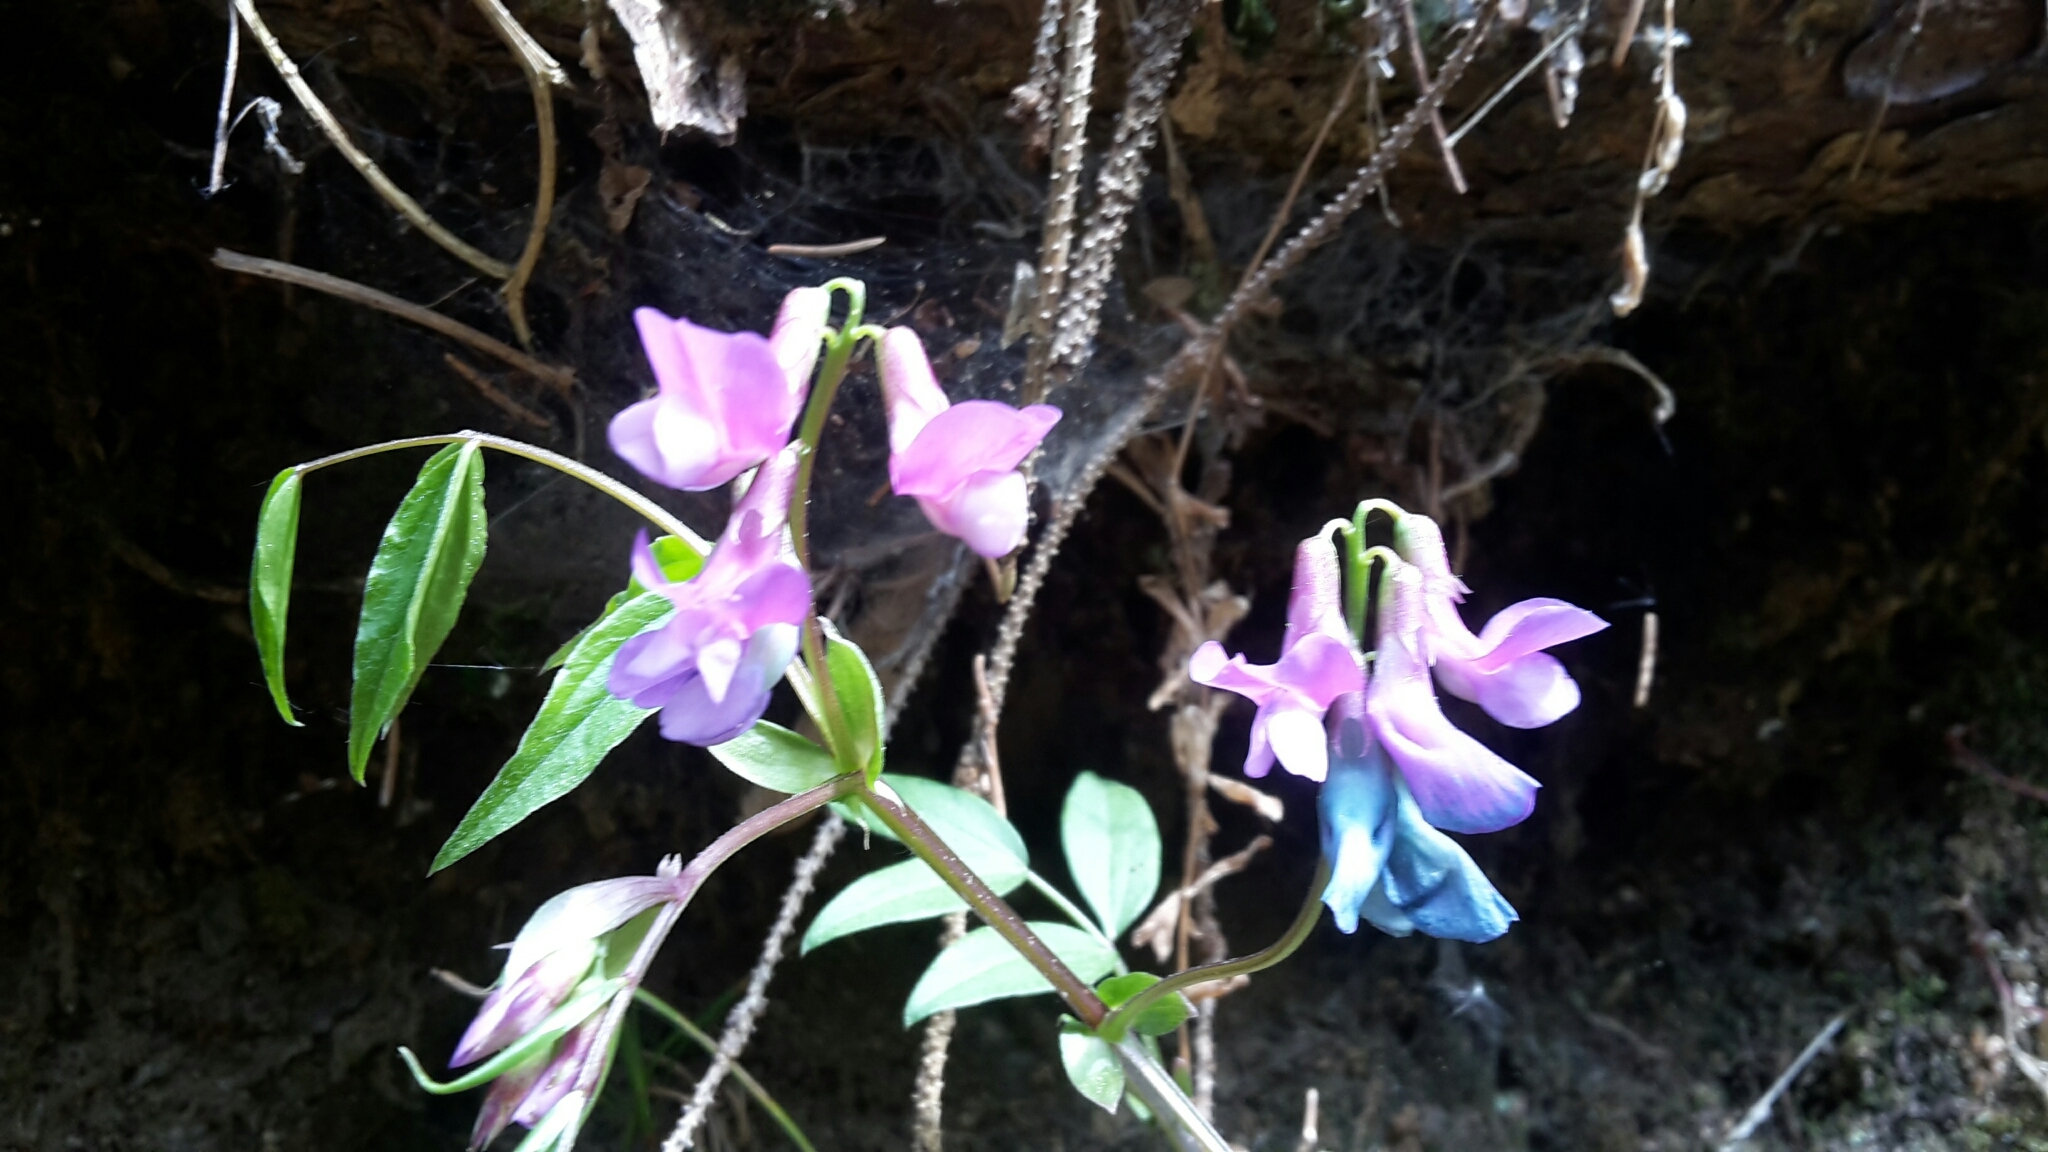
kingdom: Plantae
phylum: Tracheophyta
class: Magnoliopsida
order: Fabales
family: Fabaceae
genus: Lathyrus
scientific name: Lathyrus vernus
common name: Spring pea
